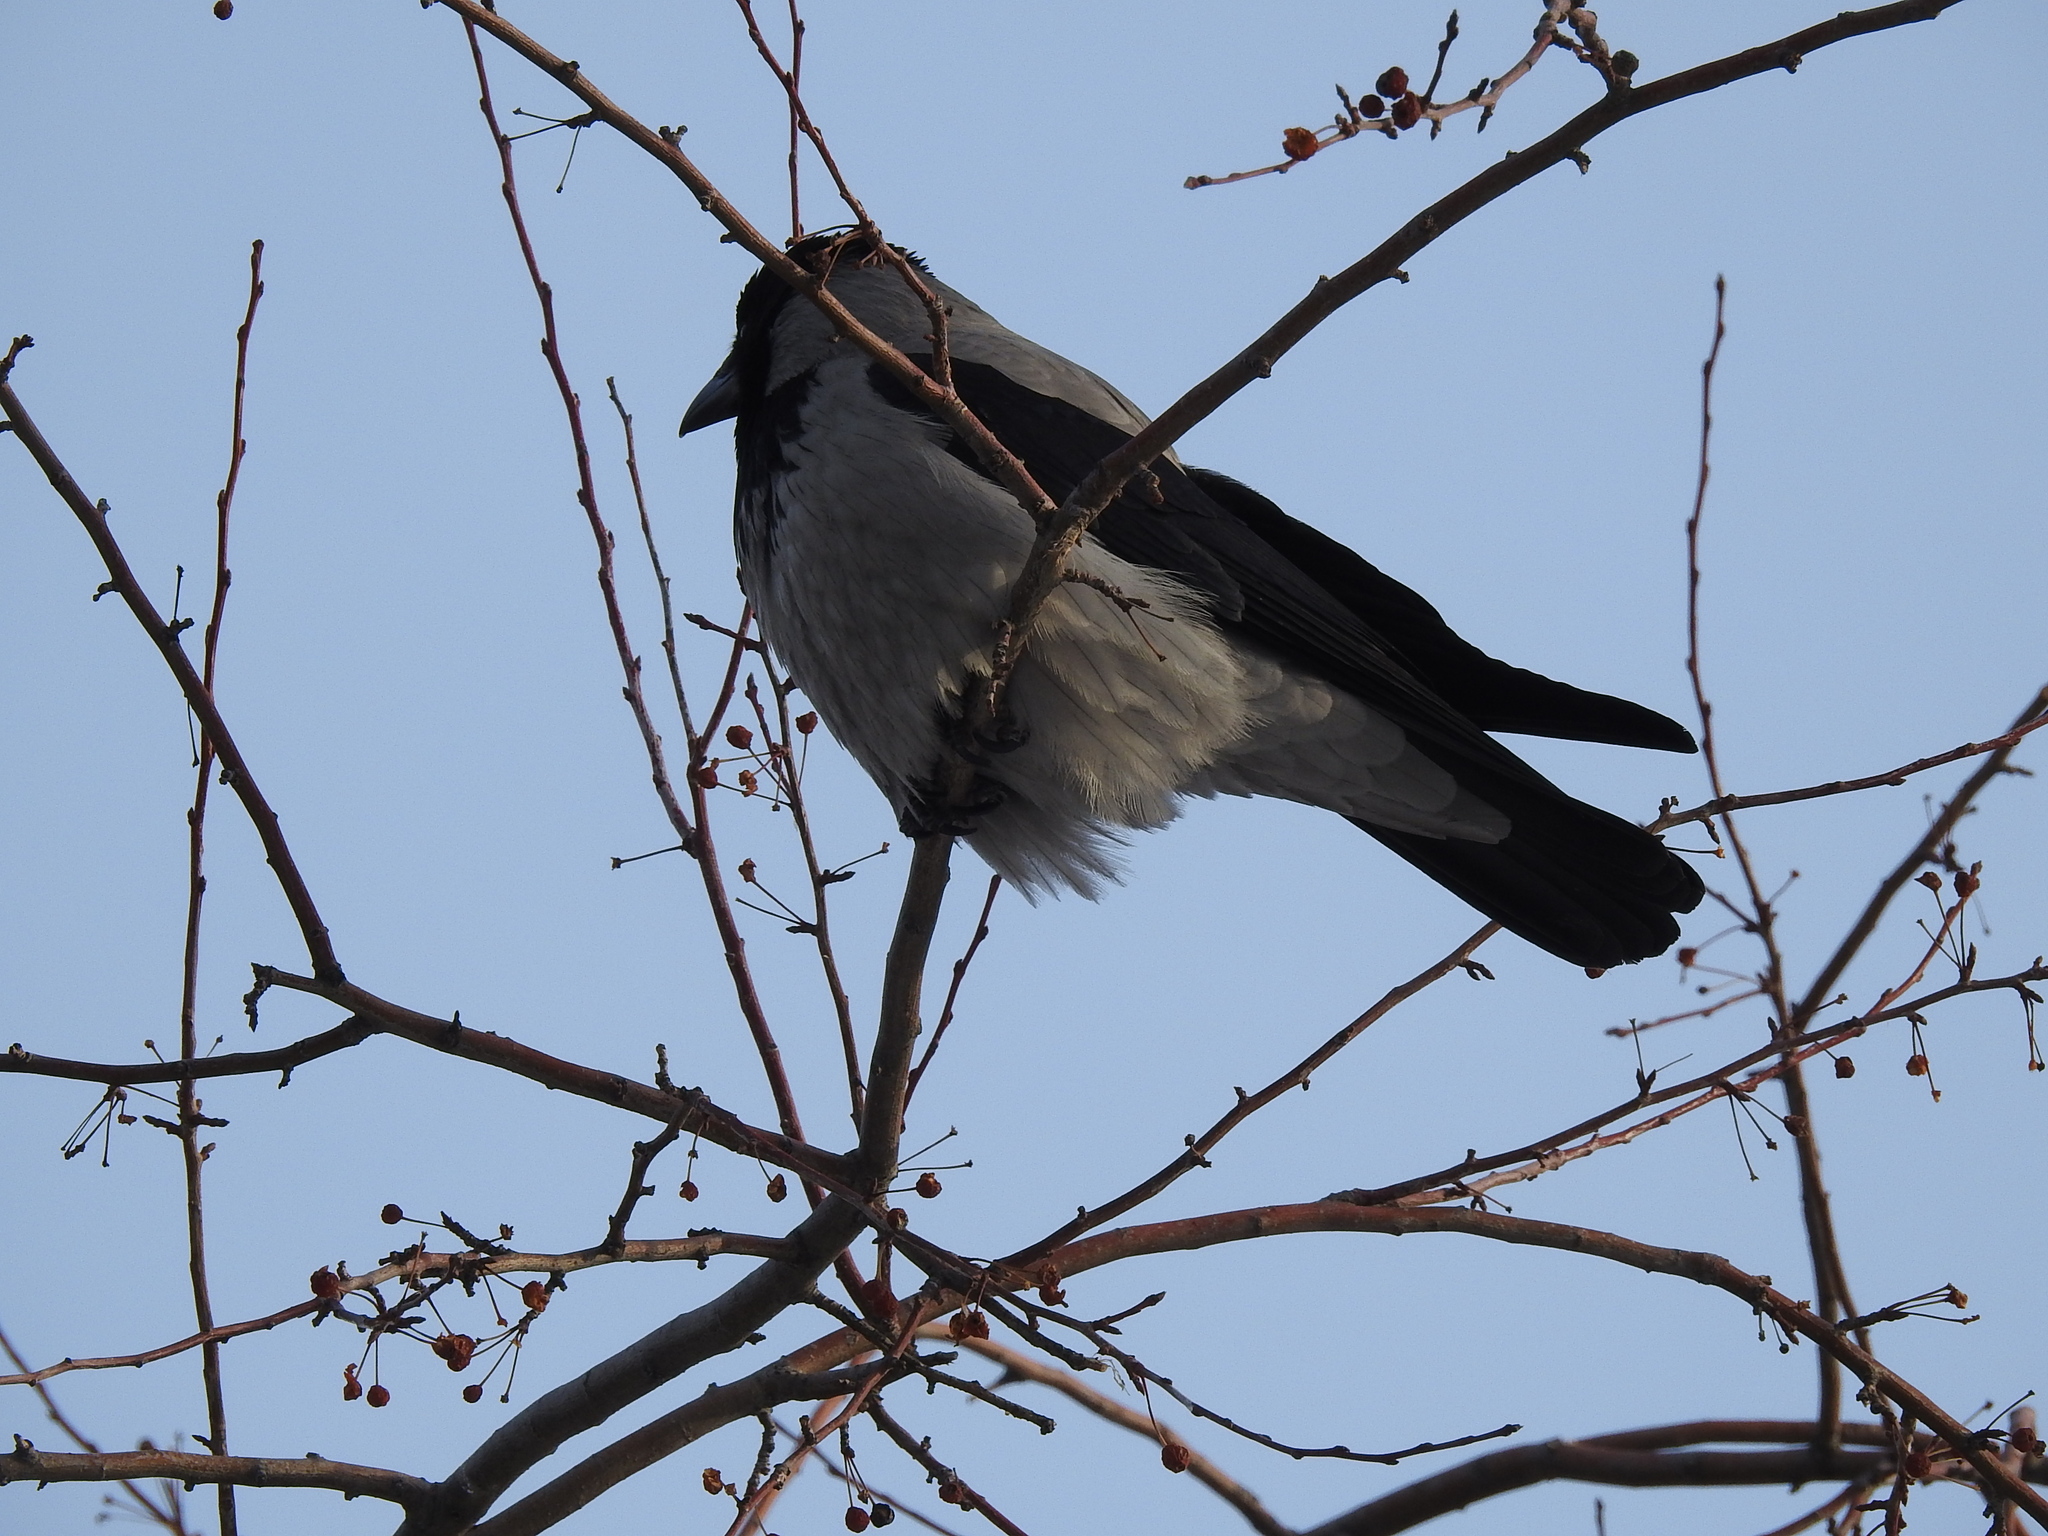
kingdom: Animalia
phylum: Chordata
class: Aves
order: Passeriformes
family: Corvidae
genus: Corvus
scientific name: Corvus cornix
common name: Hooded crow
